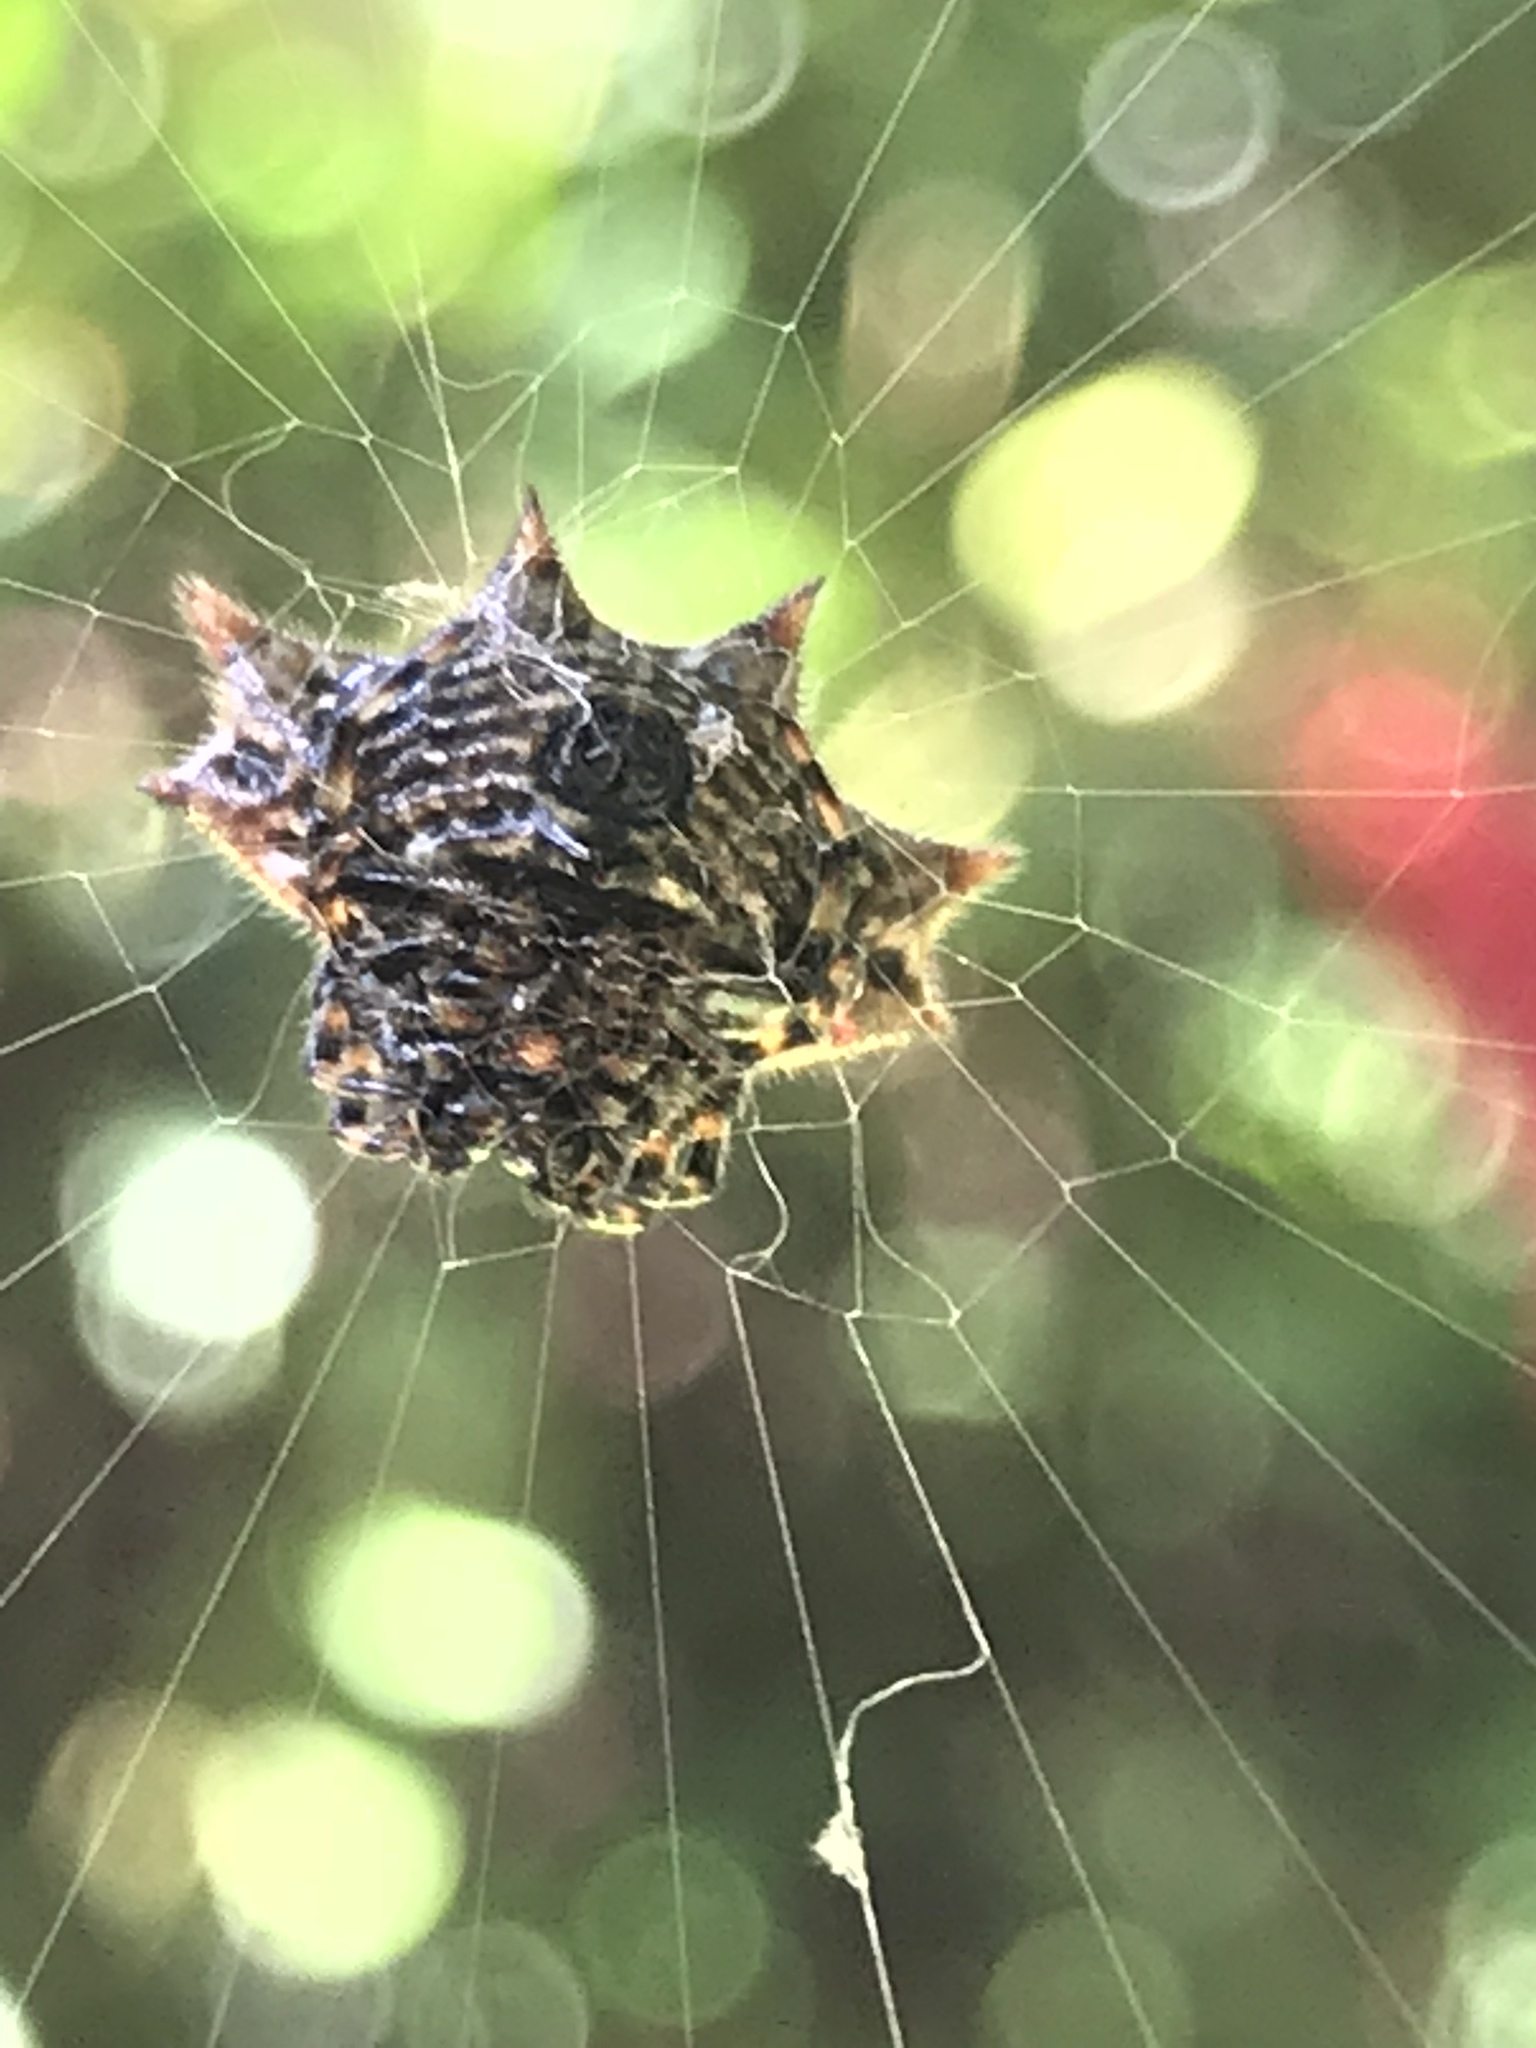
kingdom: Animalia
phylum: Arthropoda
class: Arachnida
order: Araneae
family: Araneidae
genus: Gasteracantha
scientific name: Gasteracantha cancriformis
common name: Orb weavers
